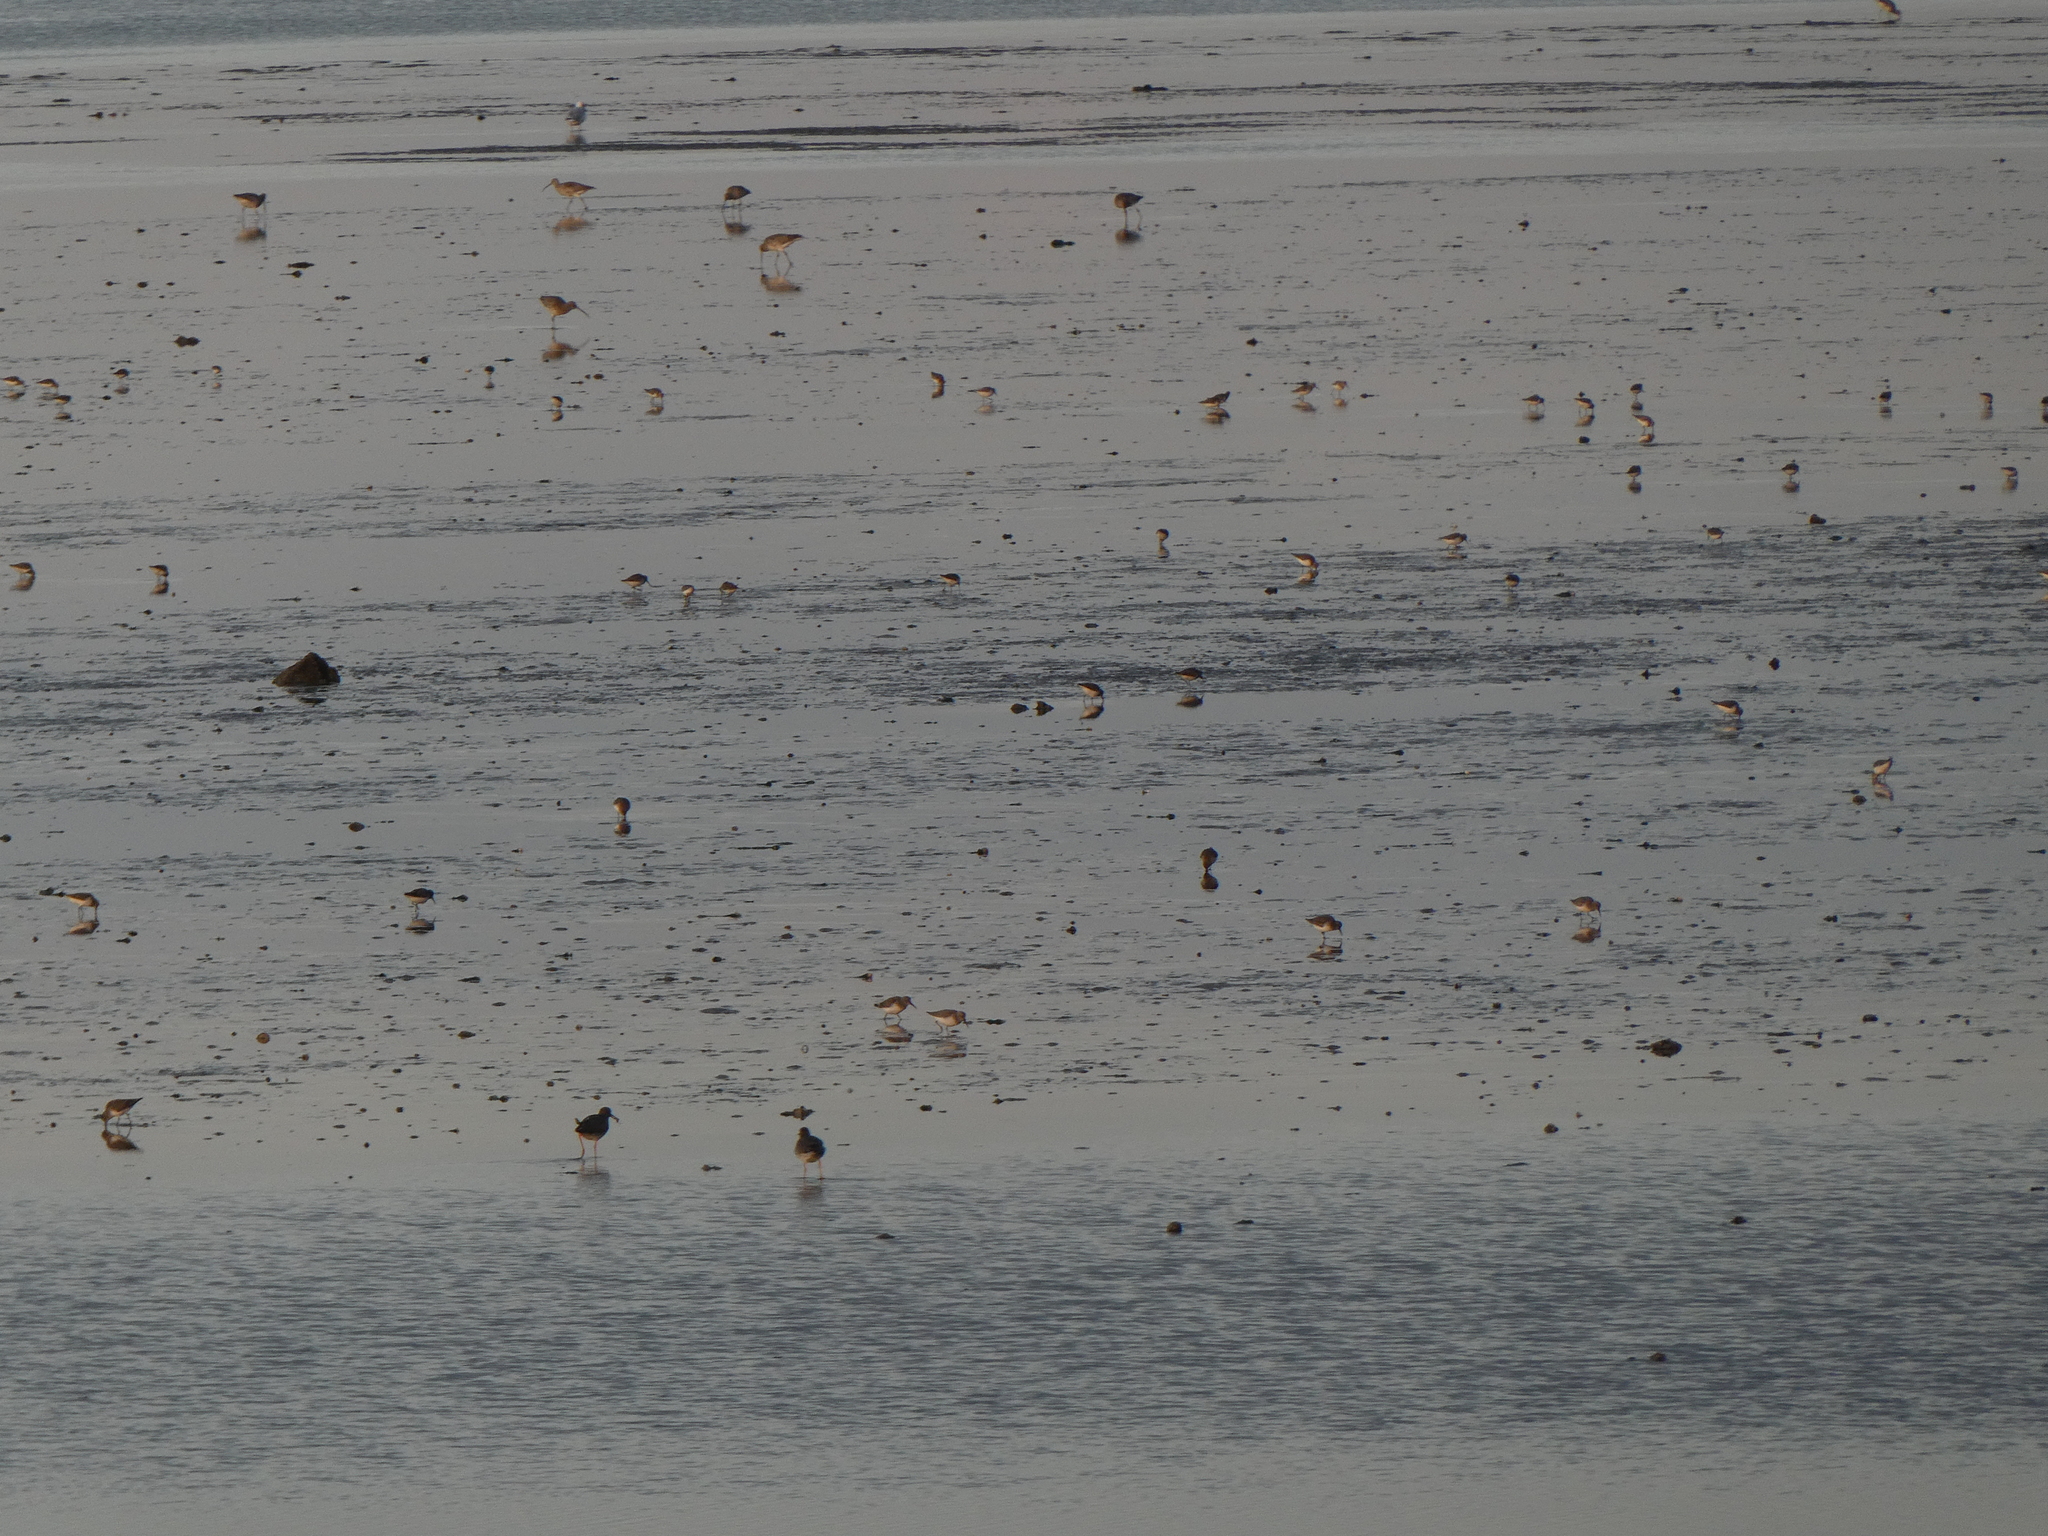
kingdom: Animalia
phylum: Chordata
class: Aves
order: Charadriiformes
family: Scolopacidae
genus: Calidris
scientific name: Calidris alpina
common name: Dunlin
